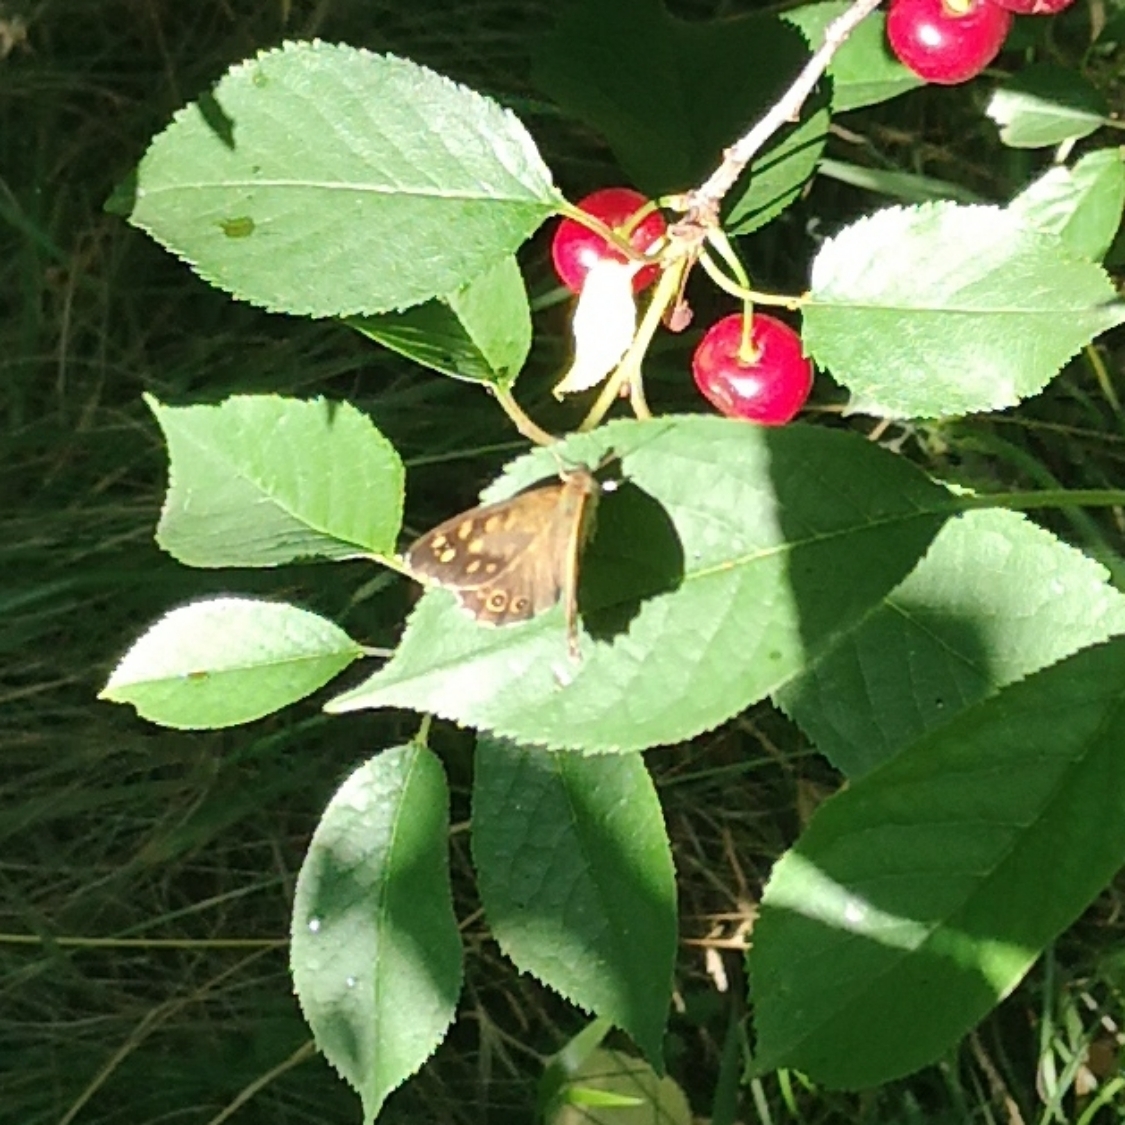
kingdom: Animalia
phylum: Arthropoda
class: Insecta
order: Lepidoptera
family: Nymphalidae
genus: Pararge
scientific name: Pararge aegeria
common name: Speckled wood
